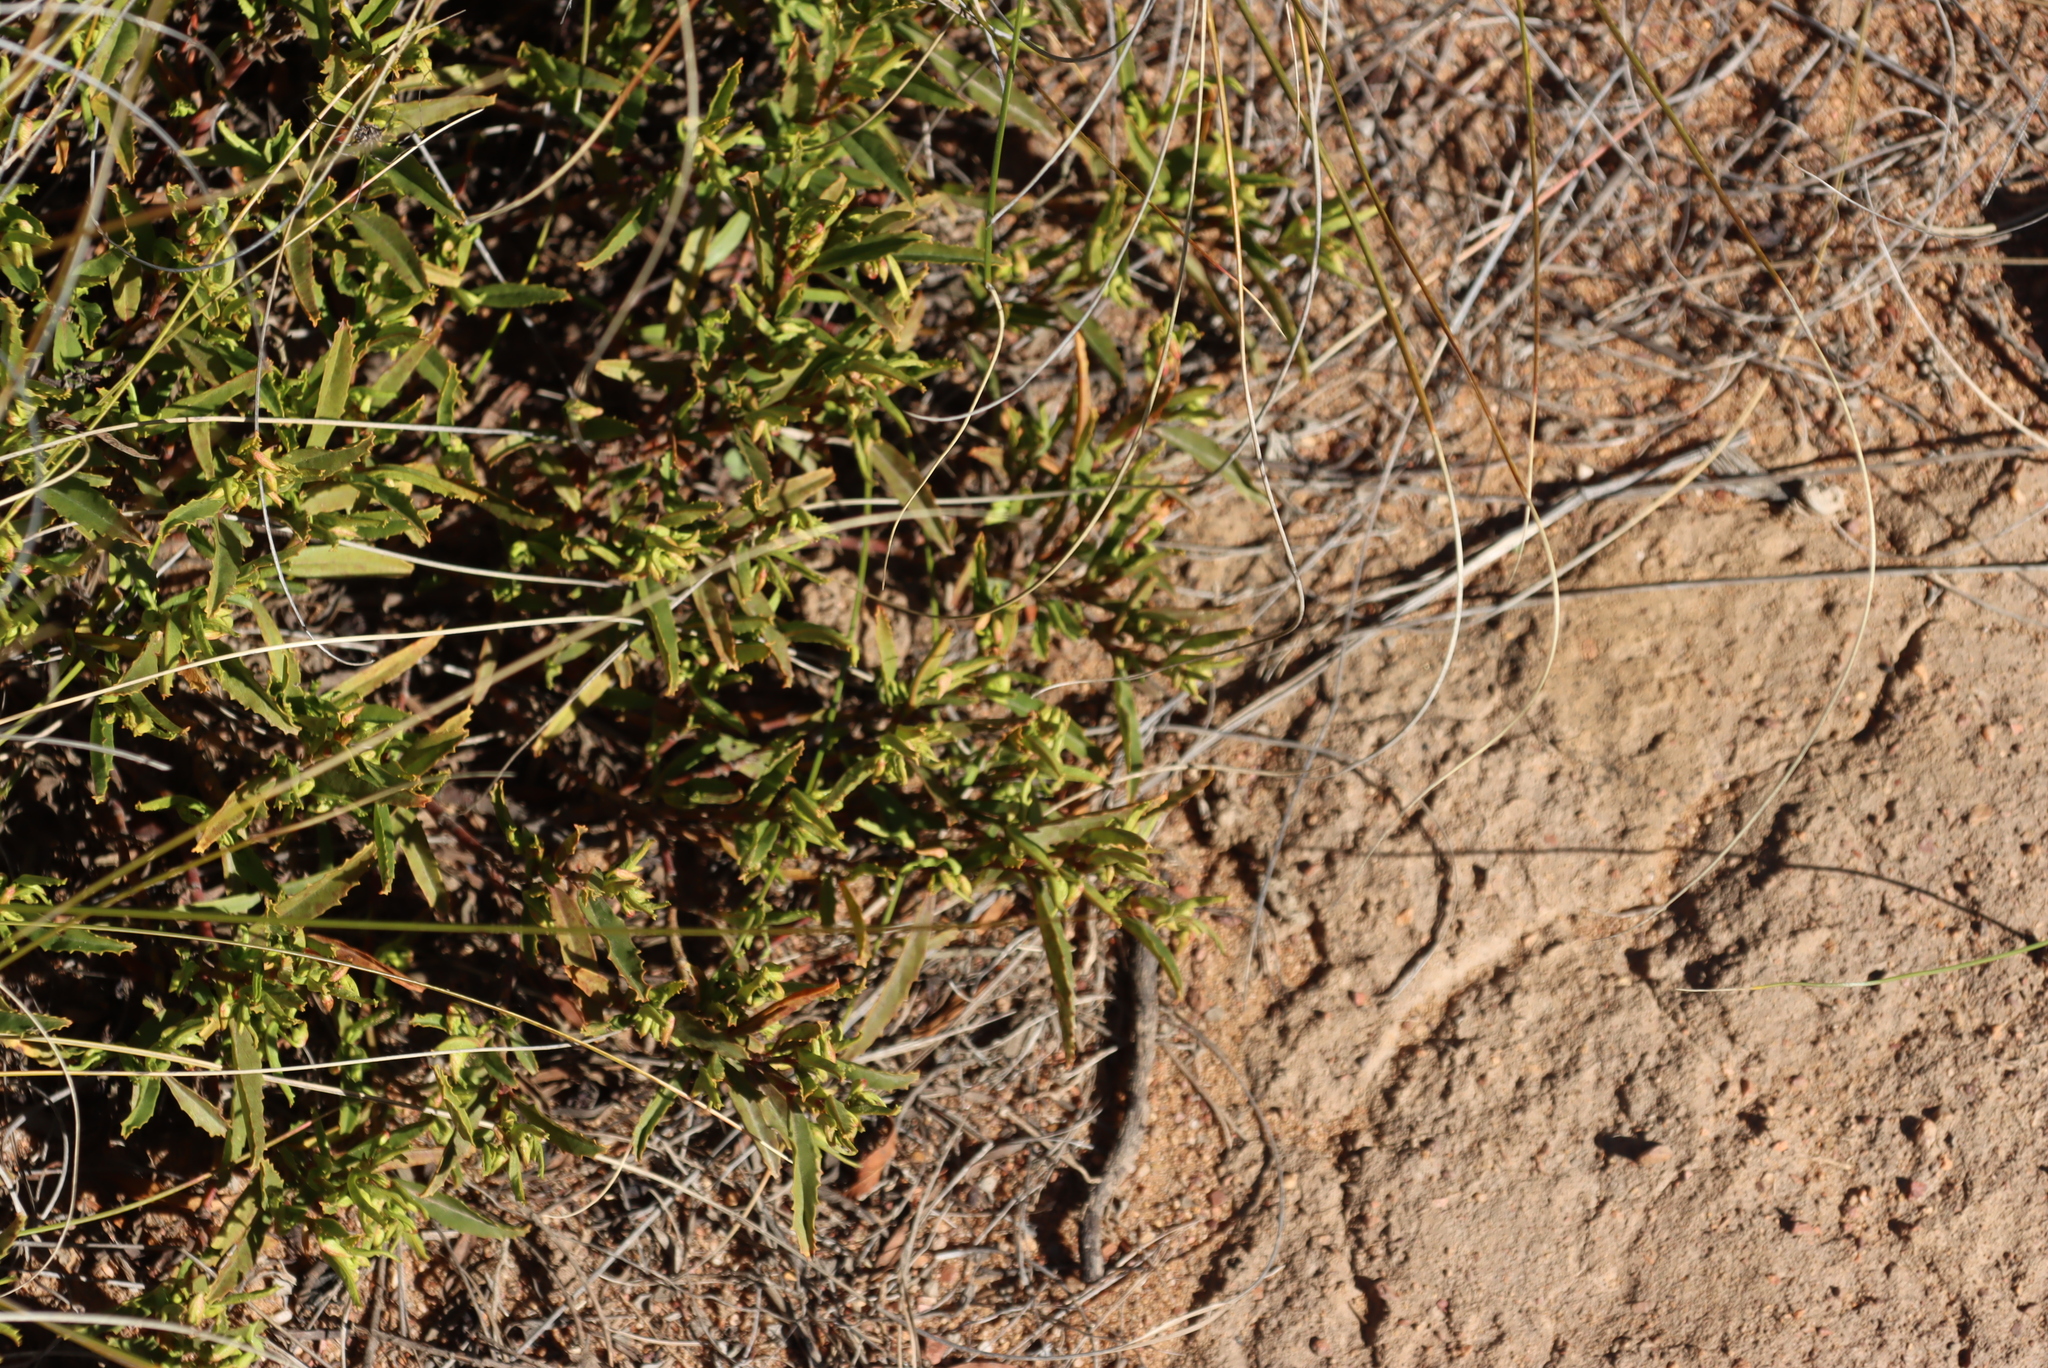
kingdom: Plantae
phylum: Tracheophyta
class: Magnoliopsida
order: Malvales
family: Malvaceae
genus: Hermannia
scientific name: Hermannia saccifera
